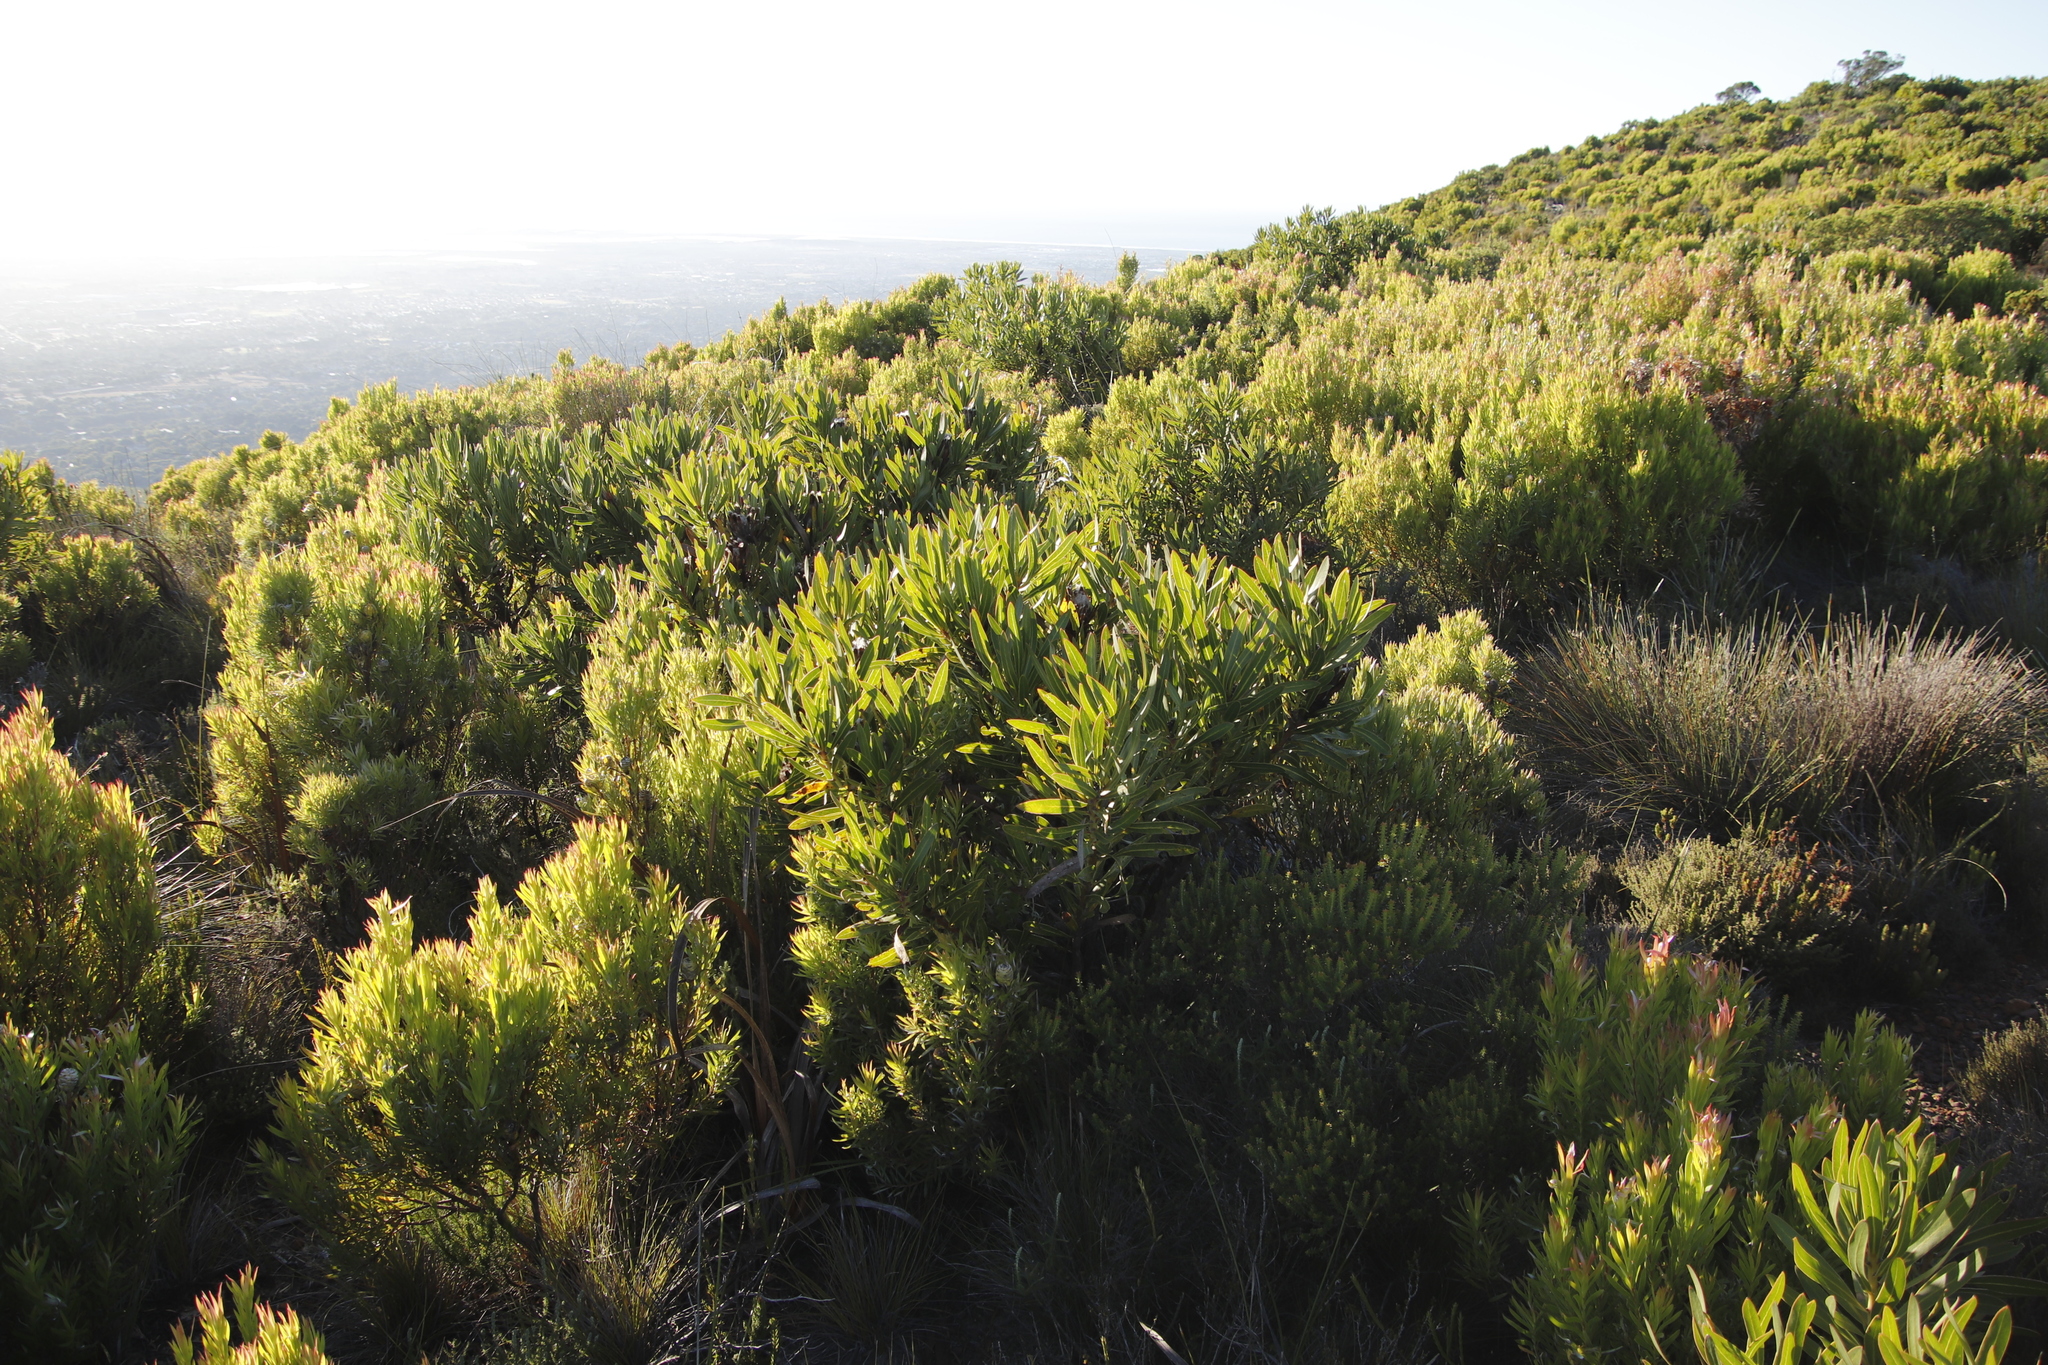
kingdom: Plantae
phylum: Tracheophyta
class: Magnoliopsida
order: Proteales
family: Proteaceae
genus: Protea
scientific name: Protea lepidocarpodendron
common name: Black-bearded protea
